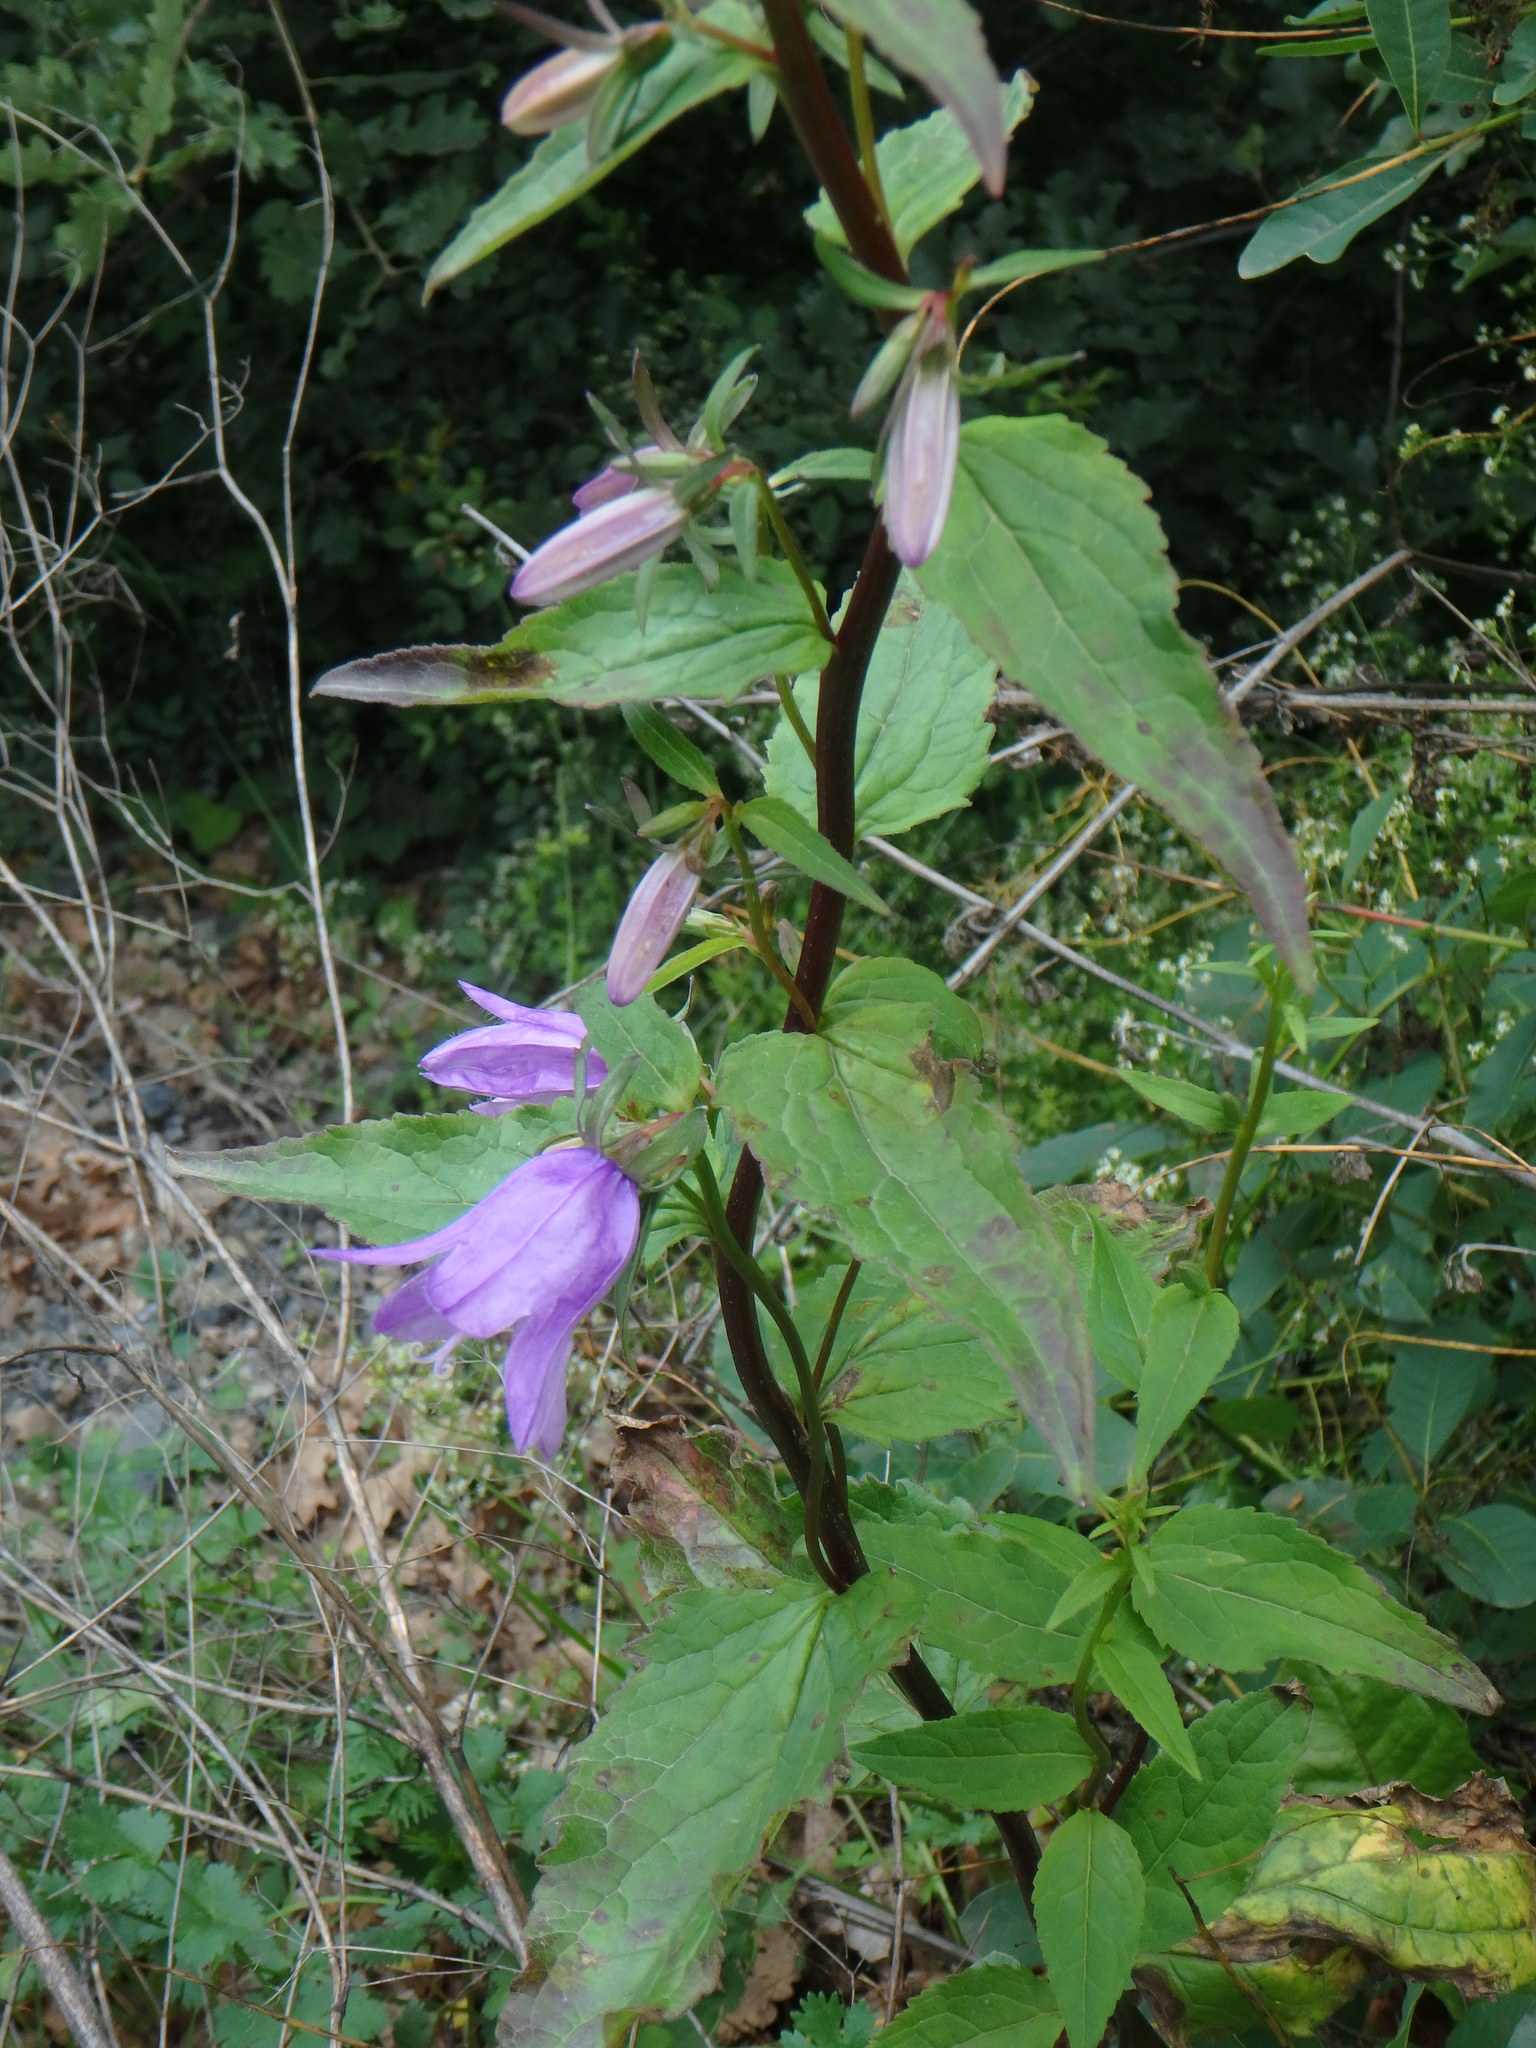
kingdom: Plantae
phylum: Tracheophyta
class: Magnoliopsida
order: Asterales
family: Campanulaceae
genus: Campanula
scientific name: Campanula rapunculoides
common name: Creeping bellflower
